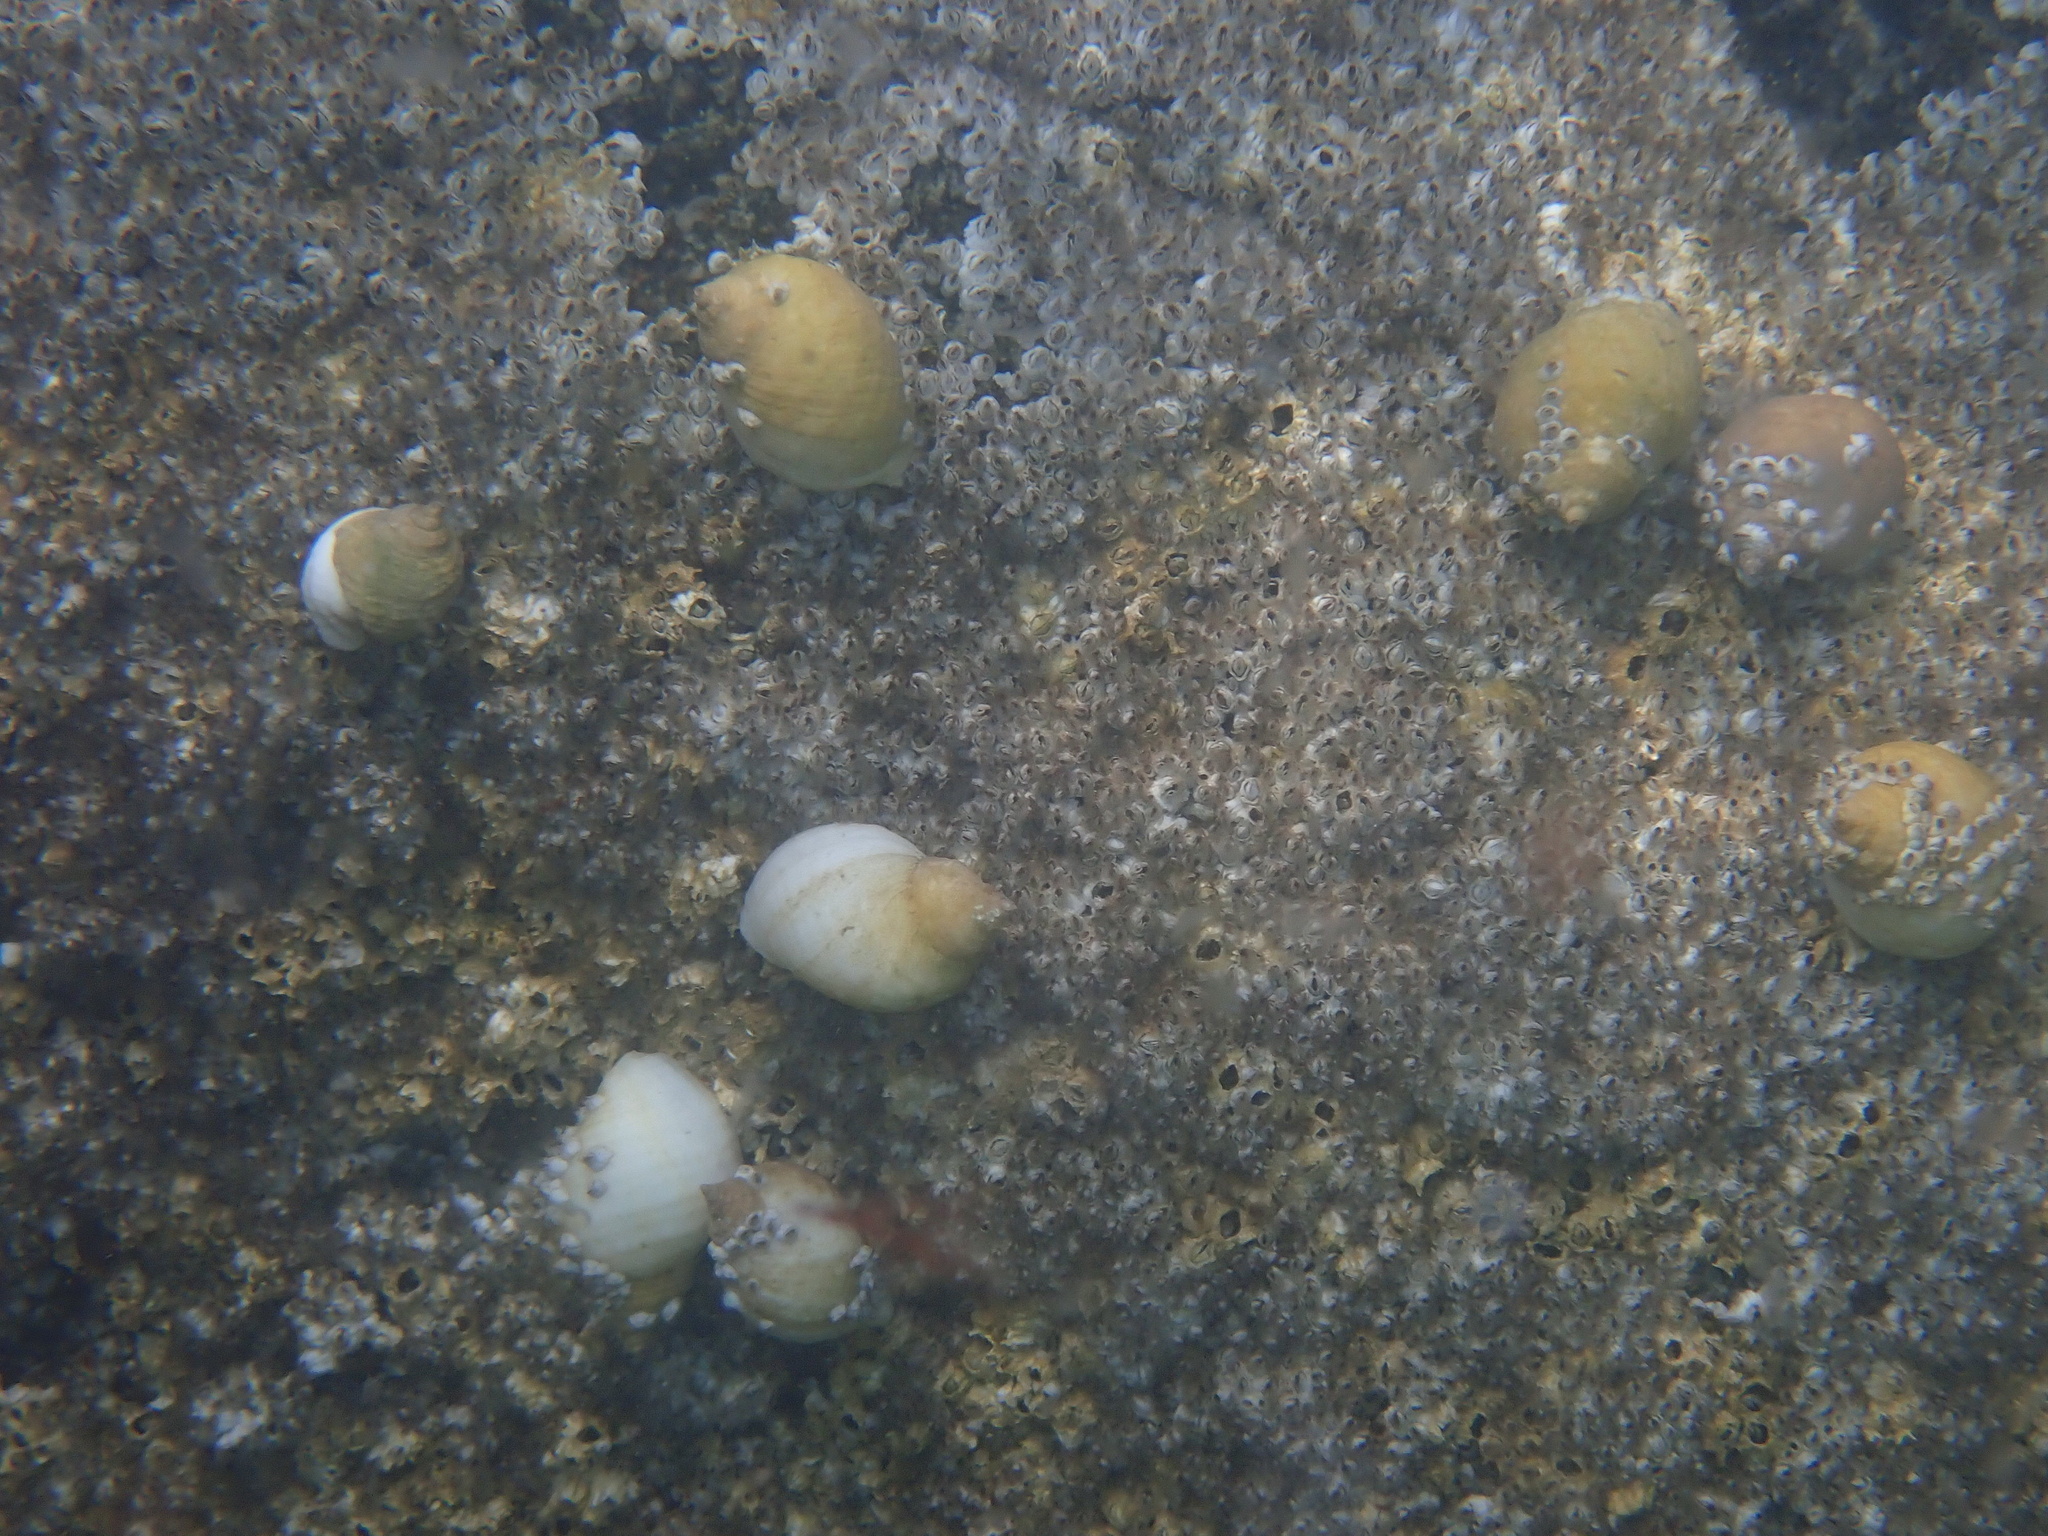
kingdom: Animalia
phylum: Mollusca
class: Gastropoda
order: Neogastropoda
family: Muricidae
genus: Nucella
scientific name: Nucella lapillus
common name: Dog whelk
